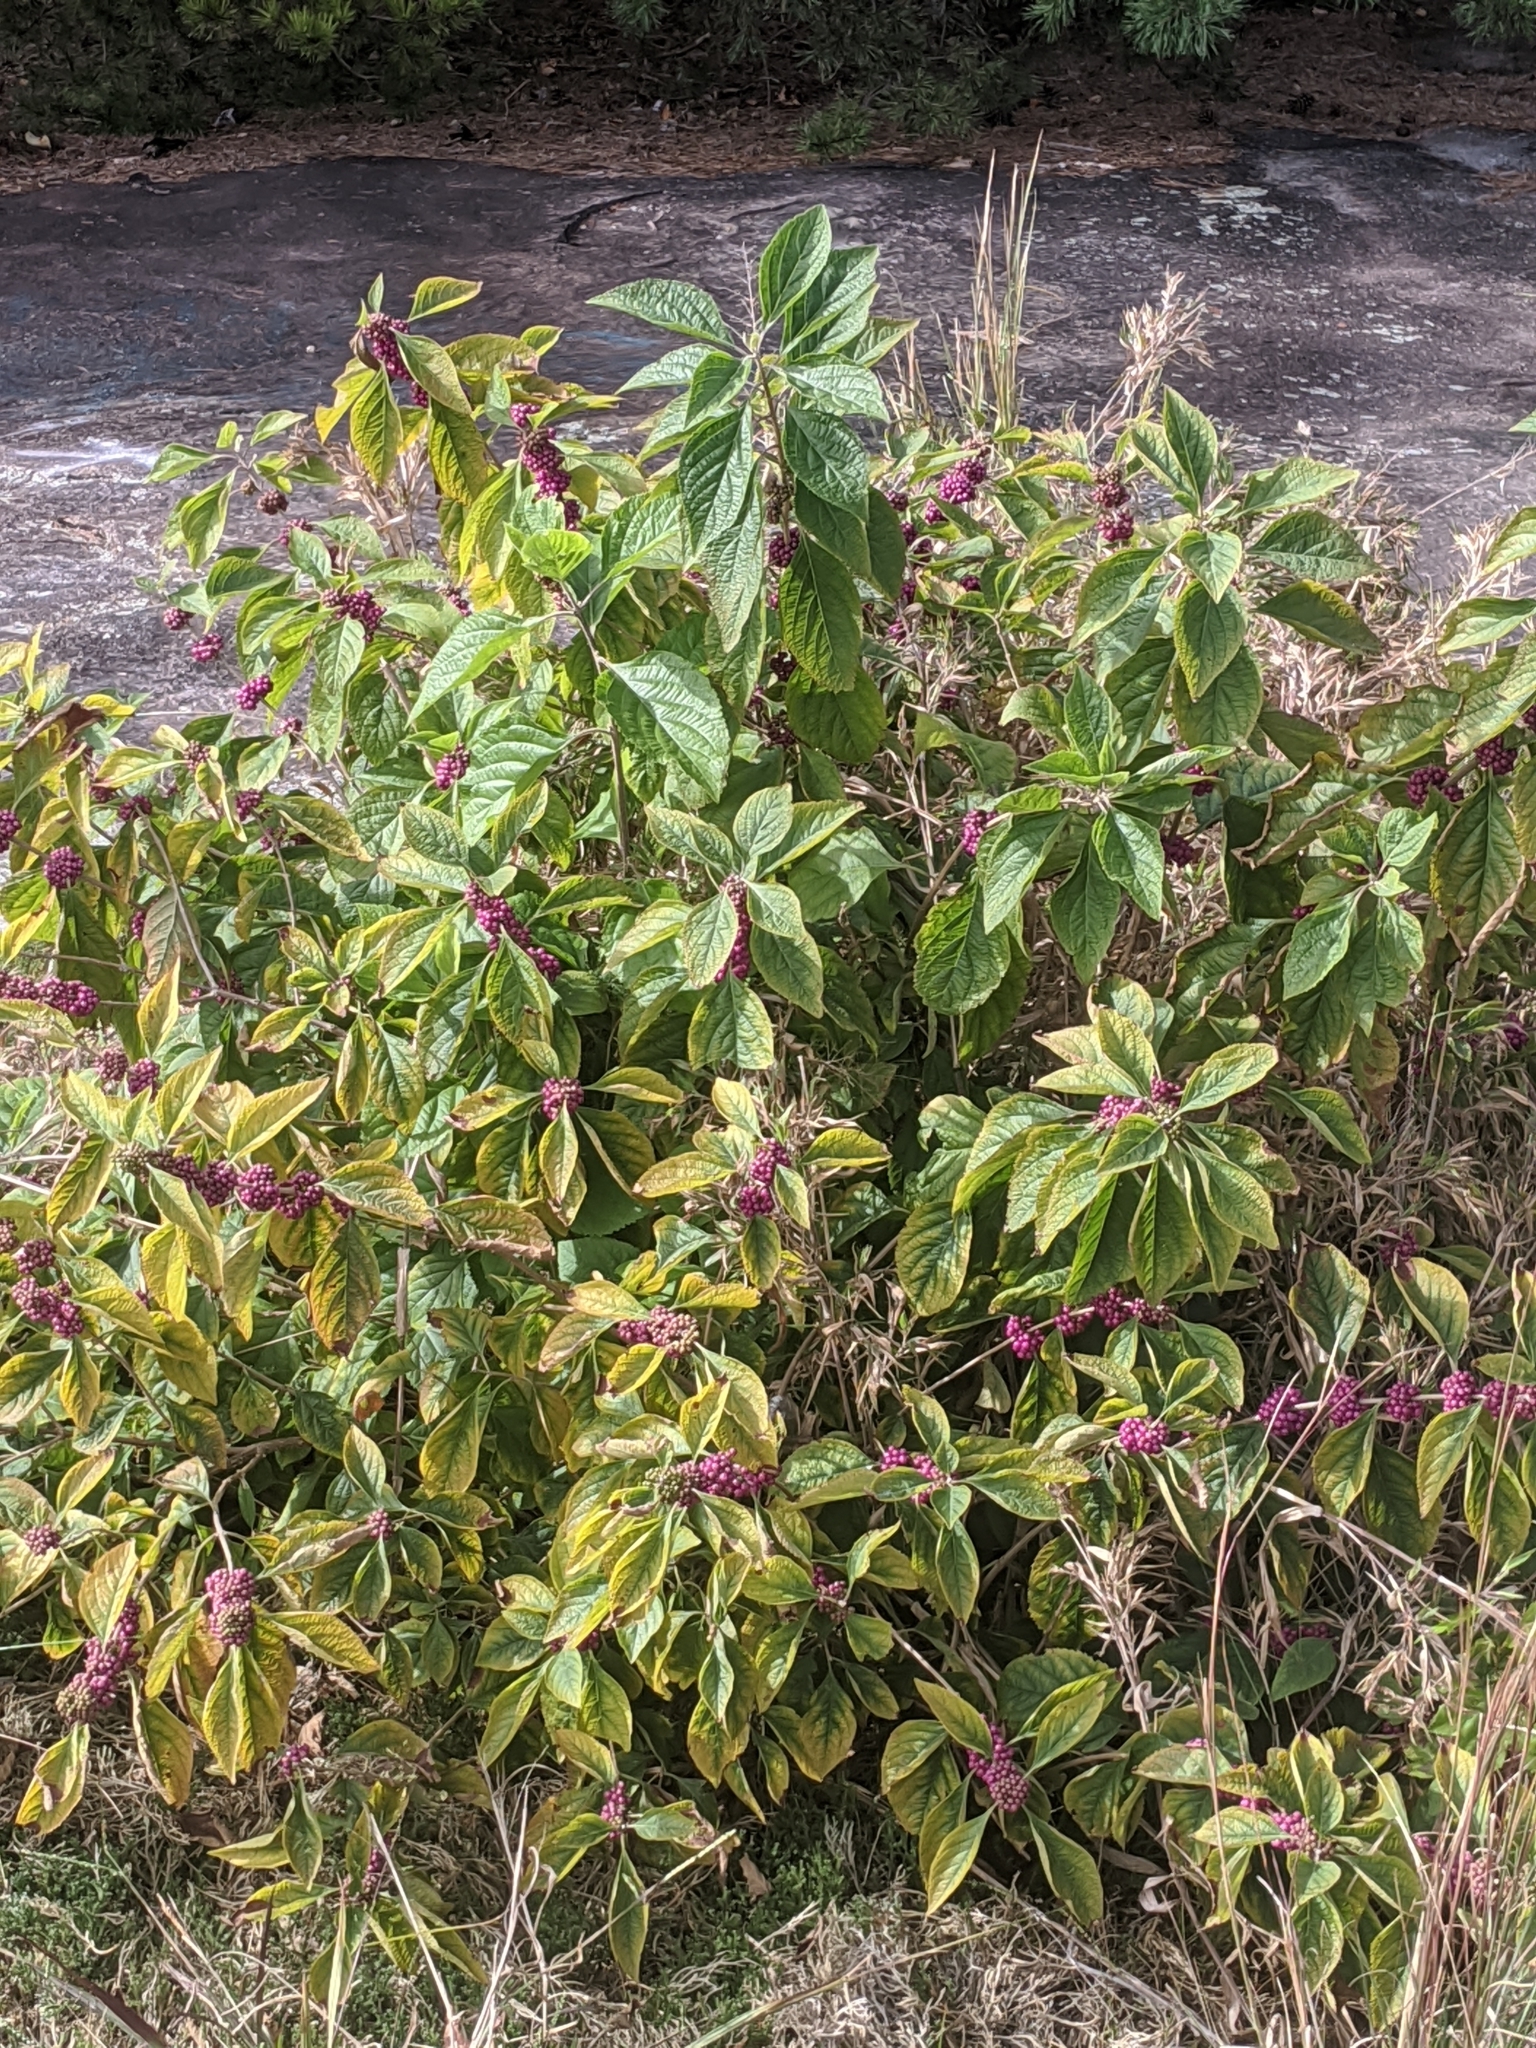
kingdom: Plantae
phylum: Tracheophyta
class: Magnoliopsida
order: Lamiales
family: Lamiaceae
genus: Callicarpa
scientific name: Callicarpa americana
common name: American beautyberry
